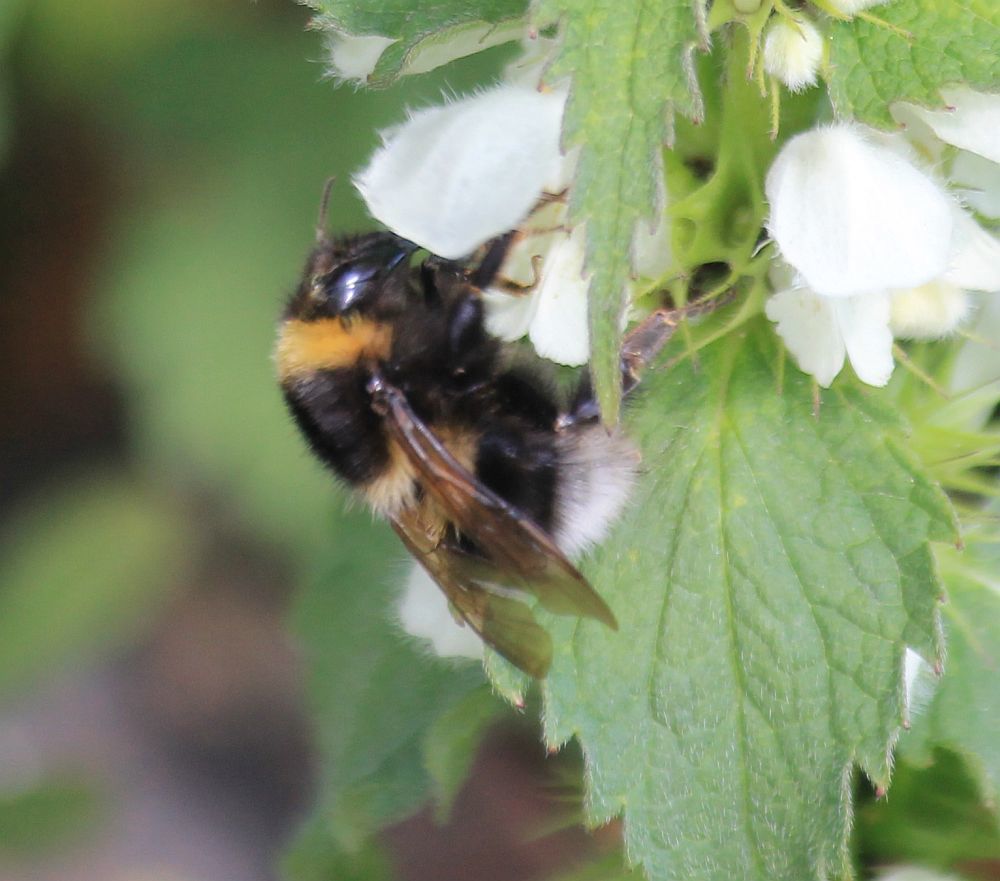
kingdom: Animalia
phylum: Arthropoda
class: Insecta
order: Hymenoptera
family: Apidae
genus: Bombus
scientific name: Bombus hortorum
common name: Garden bumblebee
